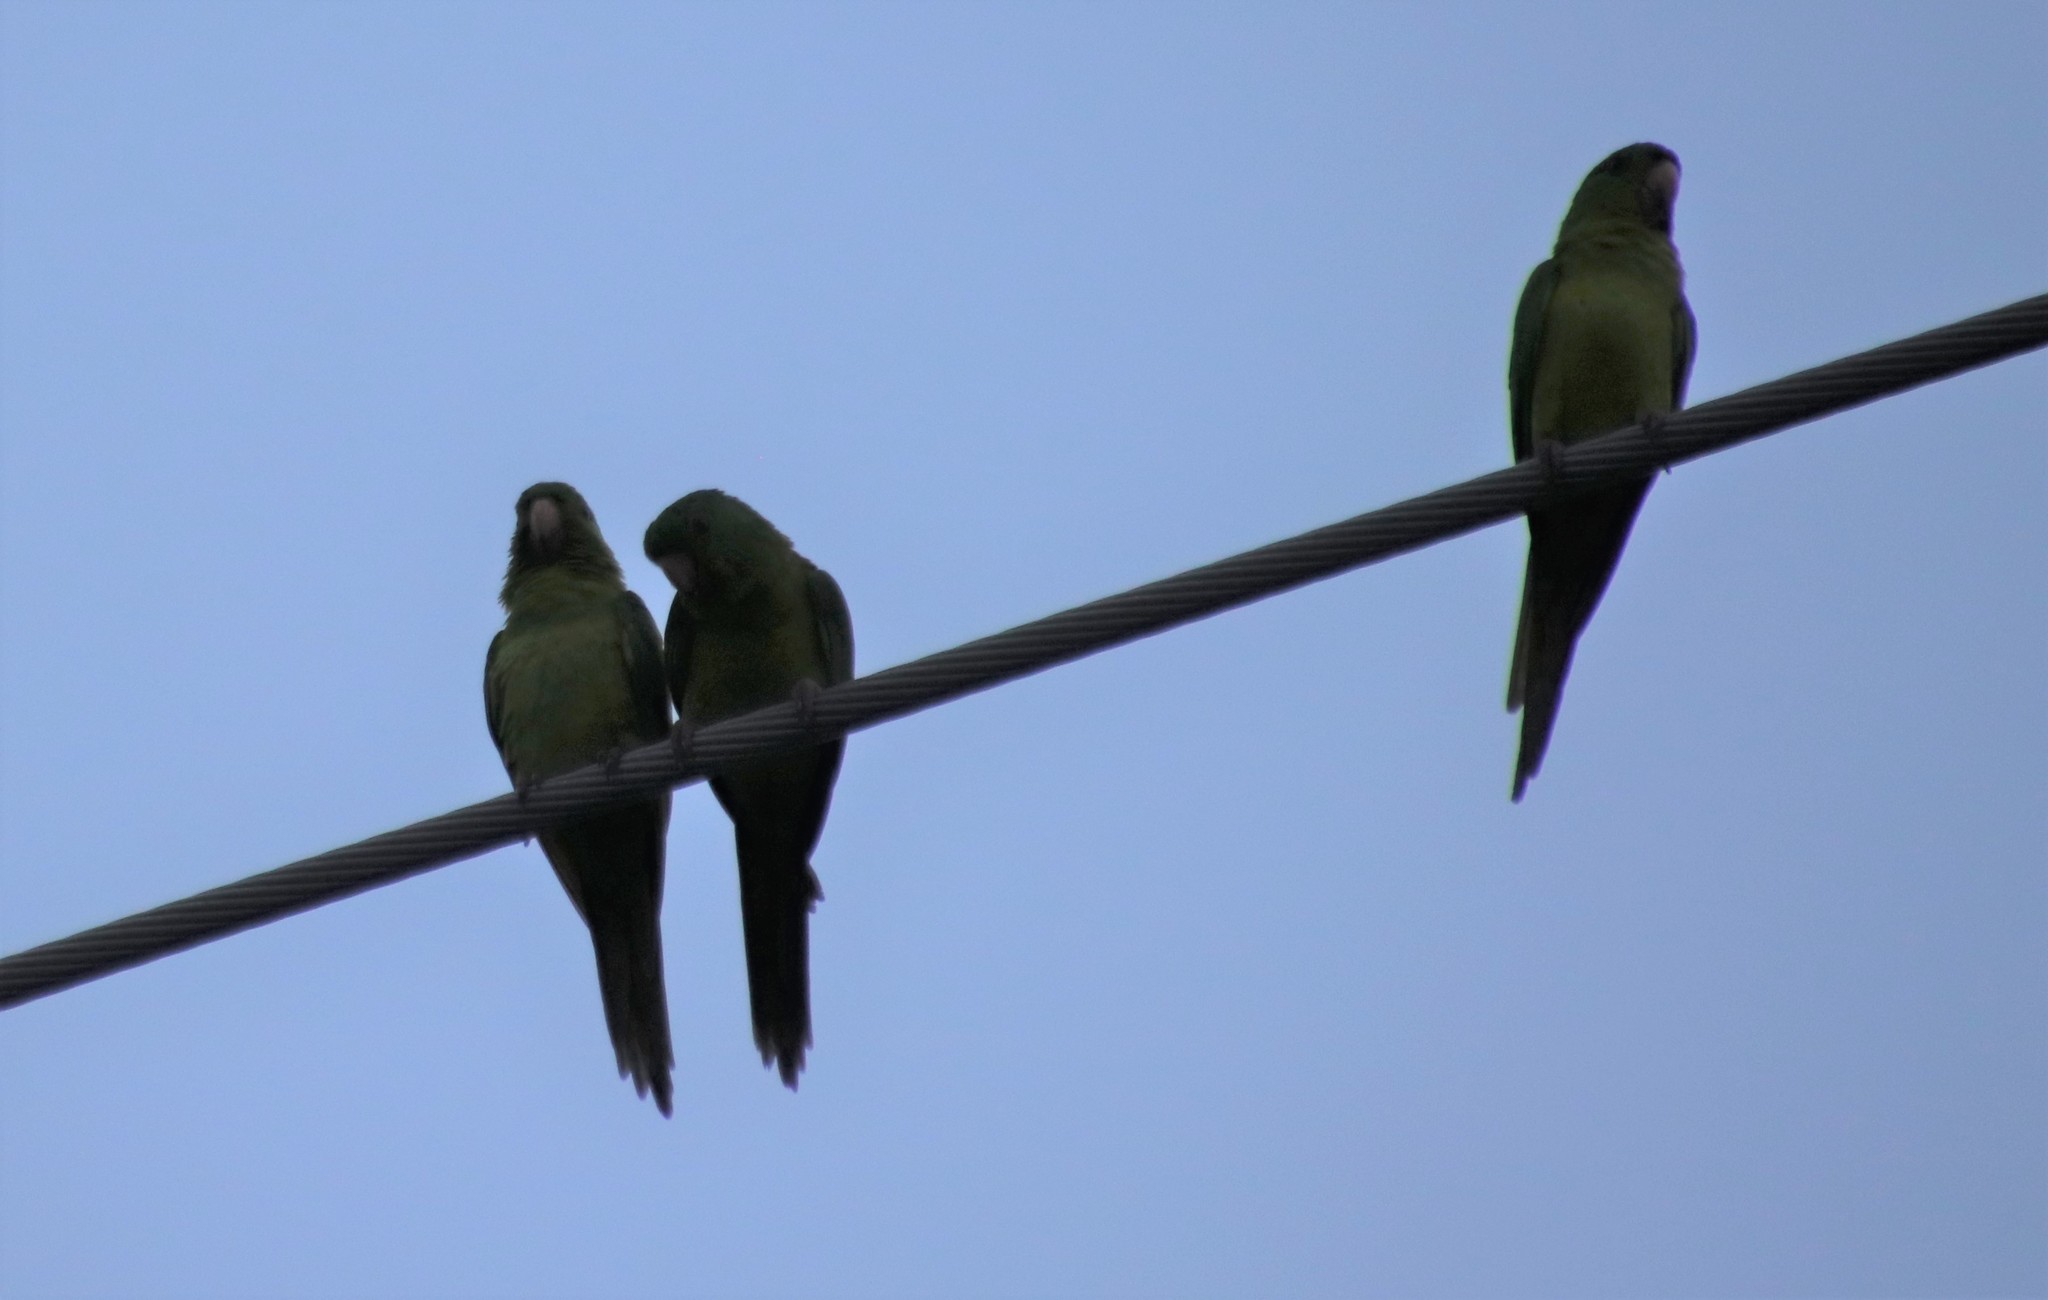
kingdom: Animalia
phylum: Chordata
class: Aves
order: Psittaciformes
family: Psittacidae
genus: Aratinga
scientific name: Aratinga holochlora
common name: Green parakeet
